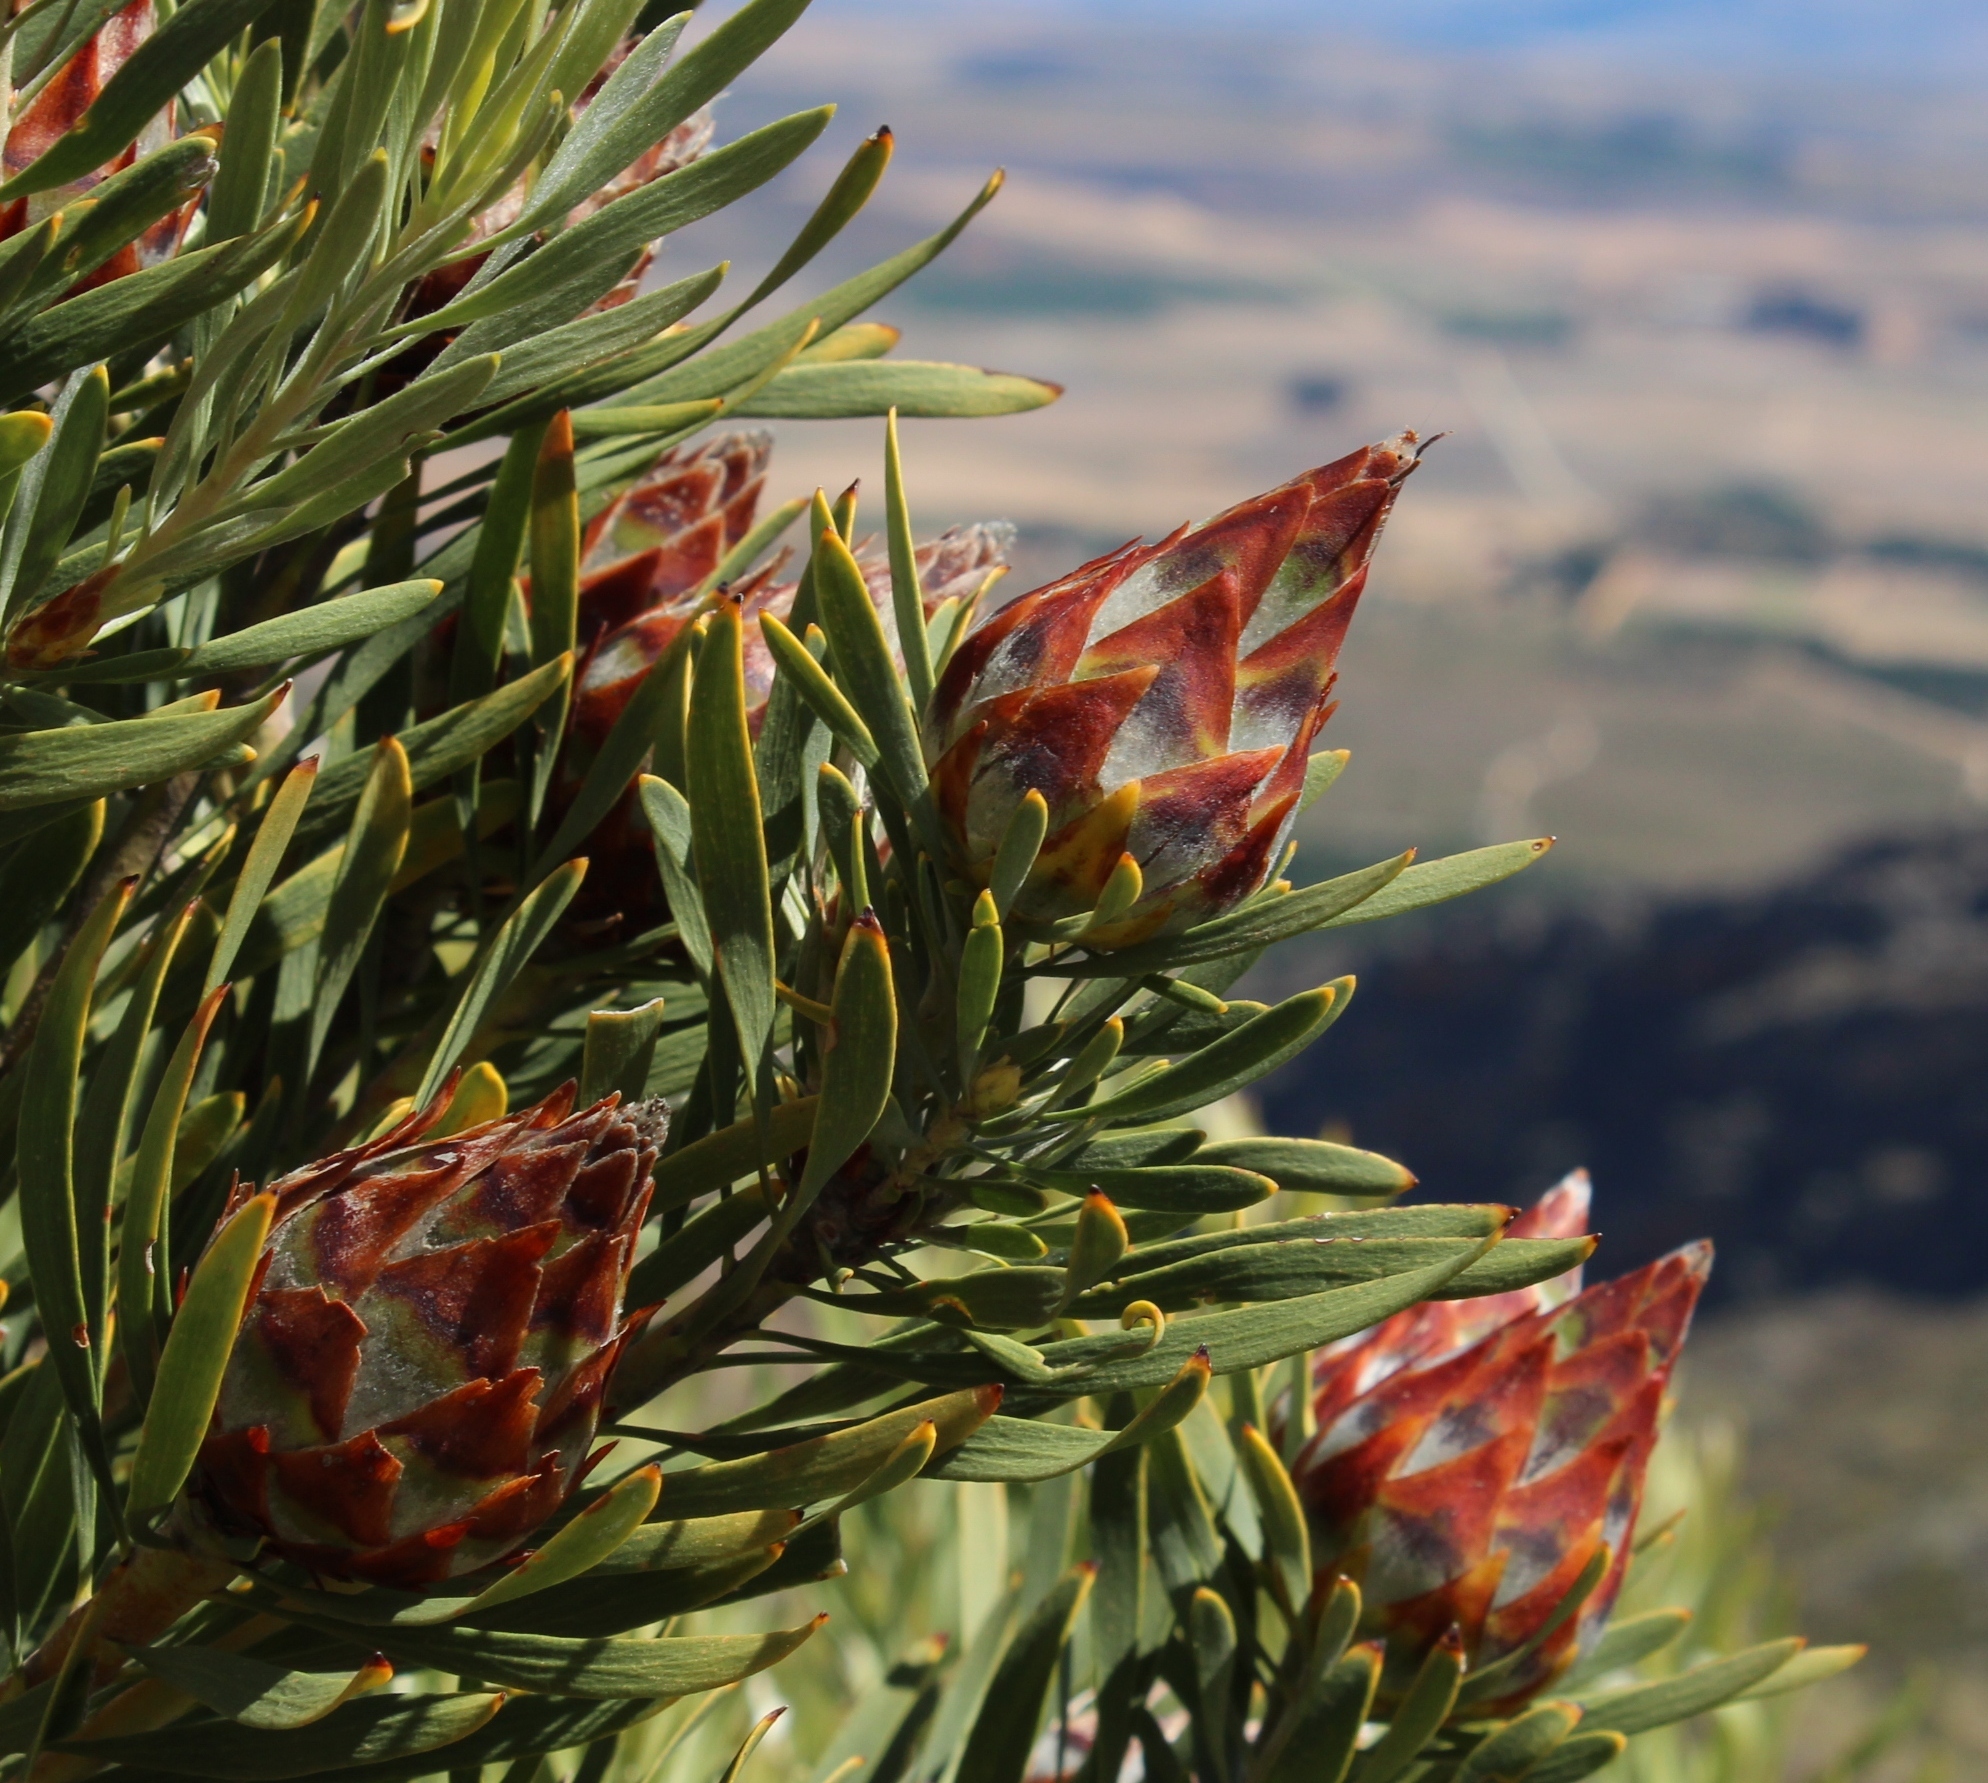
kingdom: Plantae
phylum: Tracheophyta
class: Magnoliopsida
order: Proteales
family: Proteaceae
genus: Leucadendron
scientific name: Leucadendron rubrum
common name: Spinning top
